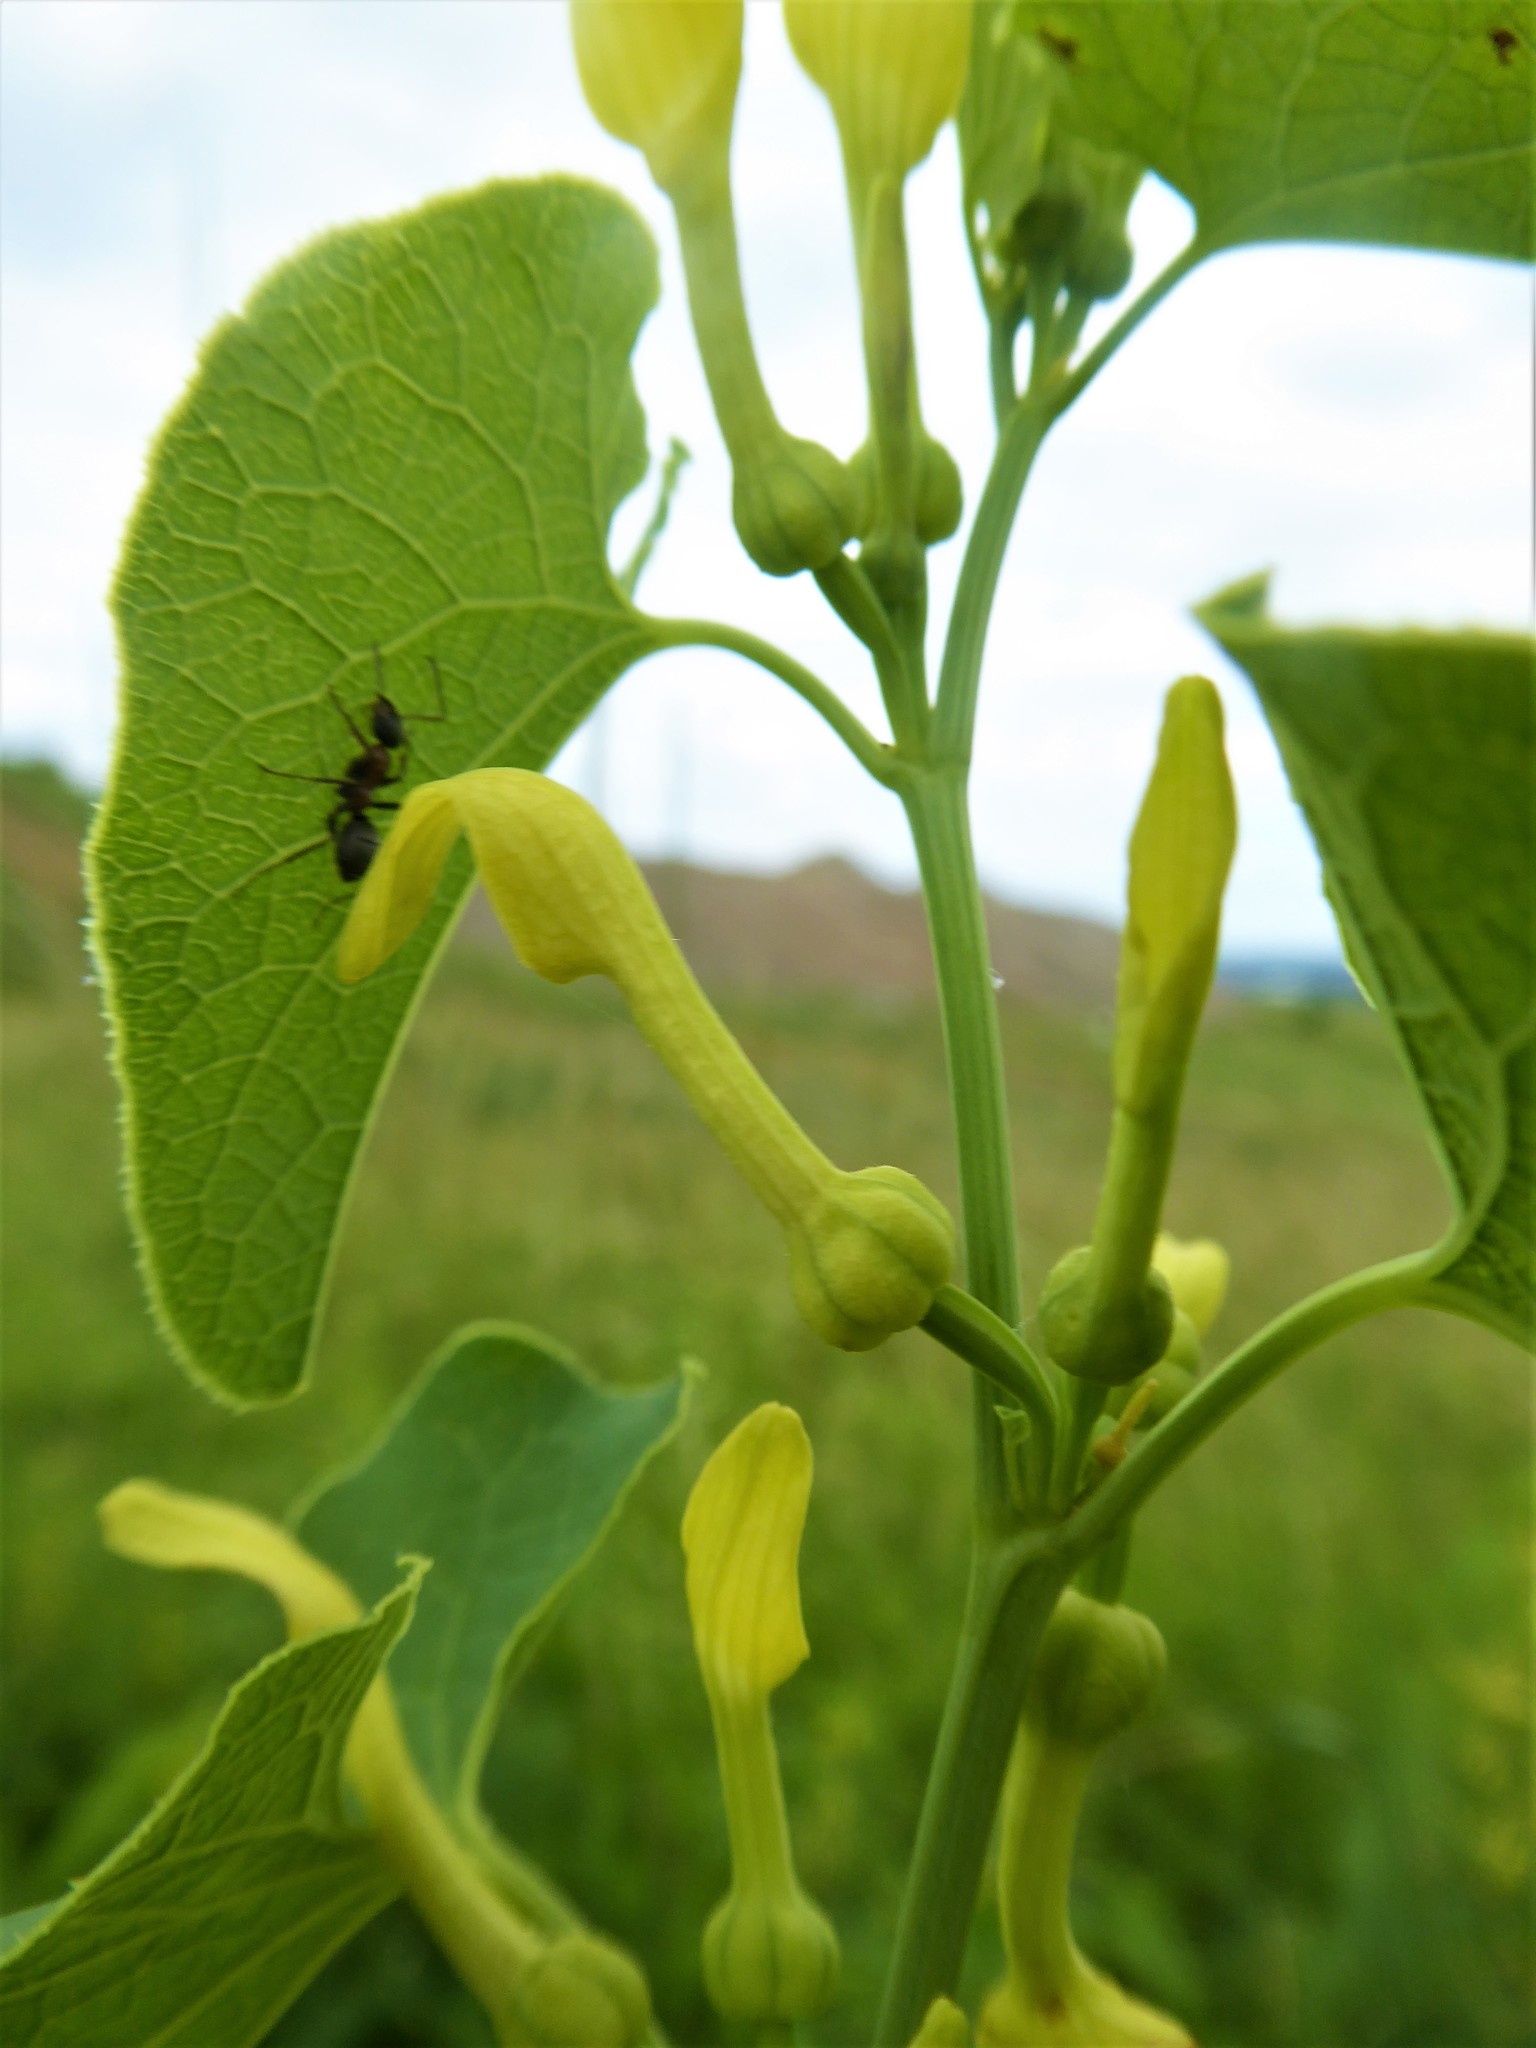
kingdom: Plantae
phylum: Tracheophyta
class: Magnoliopsida
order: Piperales
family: Aristolochiaceae
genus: Aristolochia
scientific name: Aristolochia clematitis
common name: Birthwort
